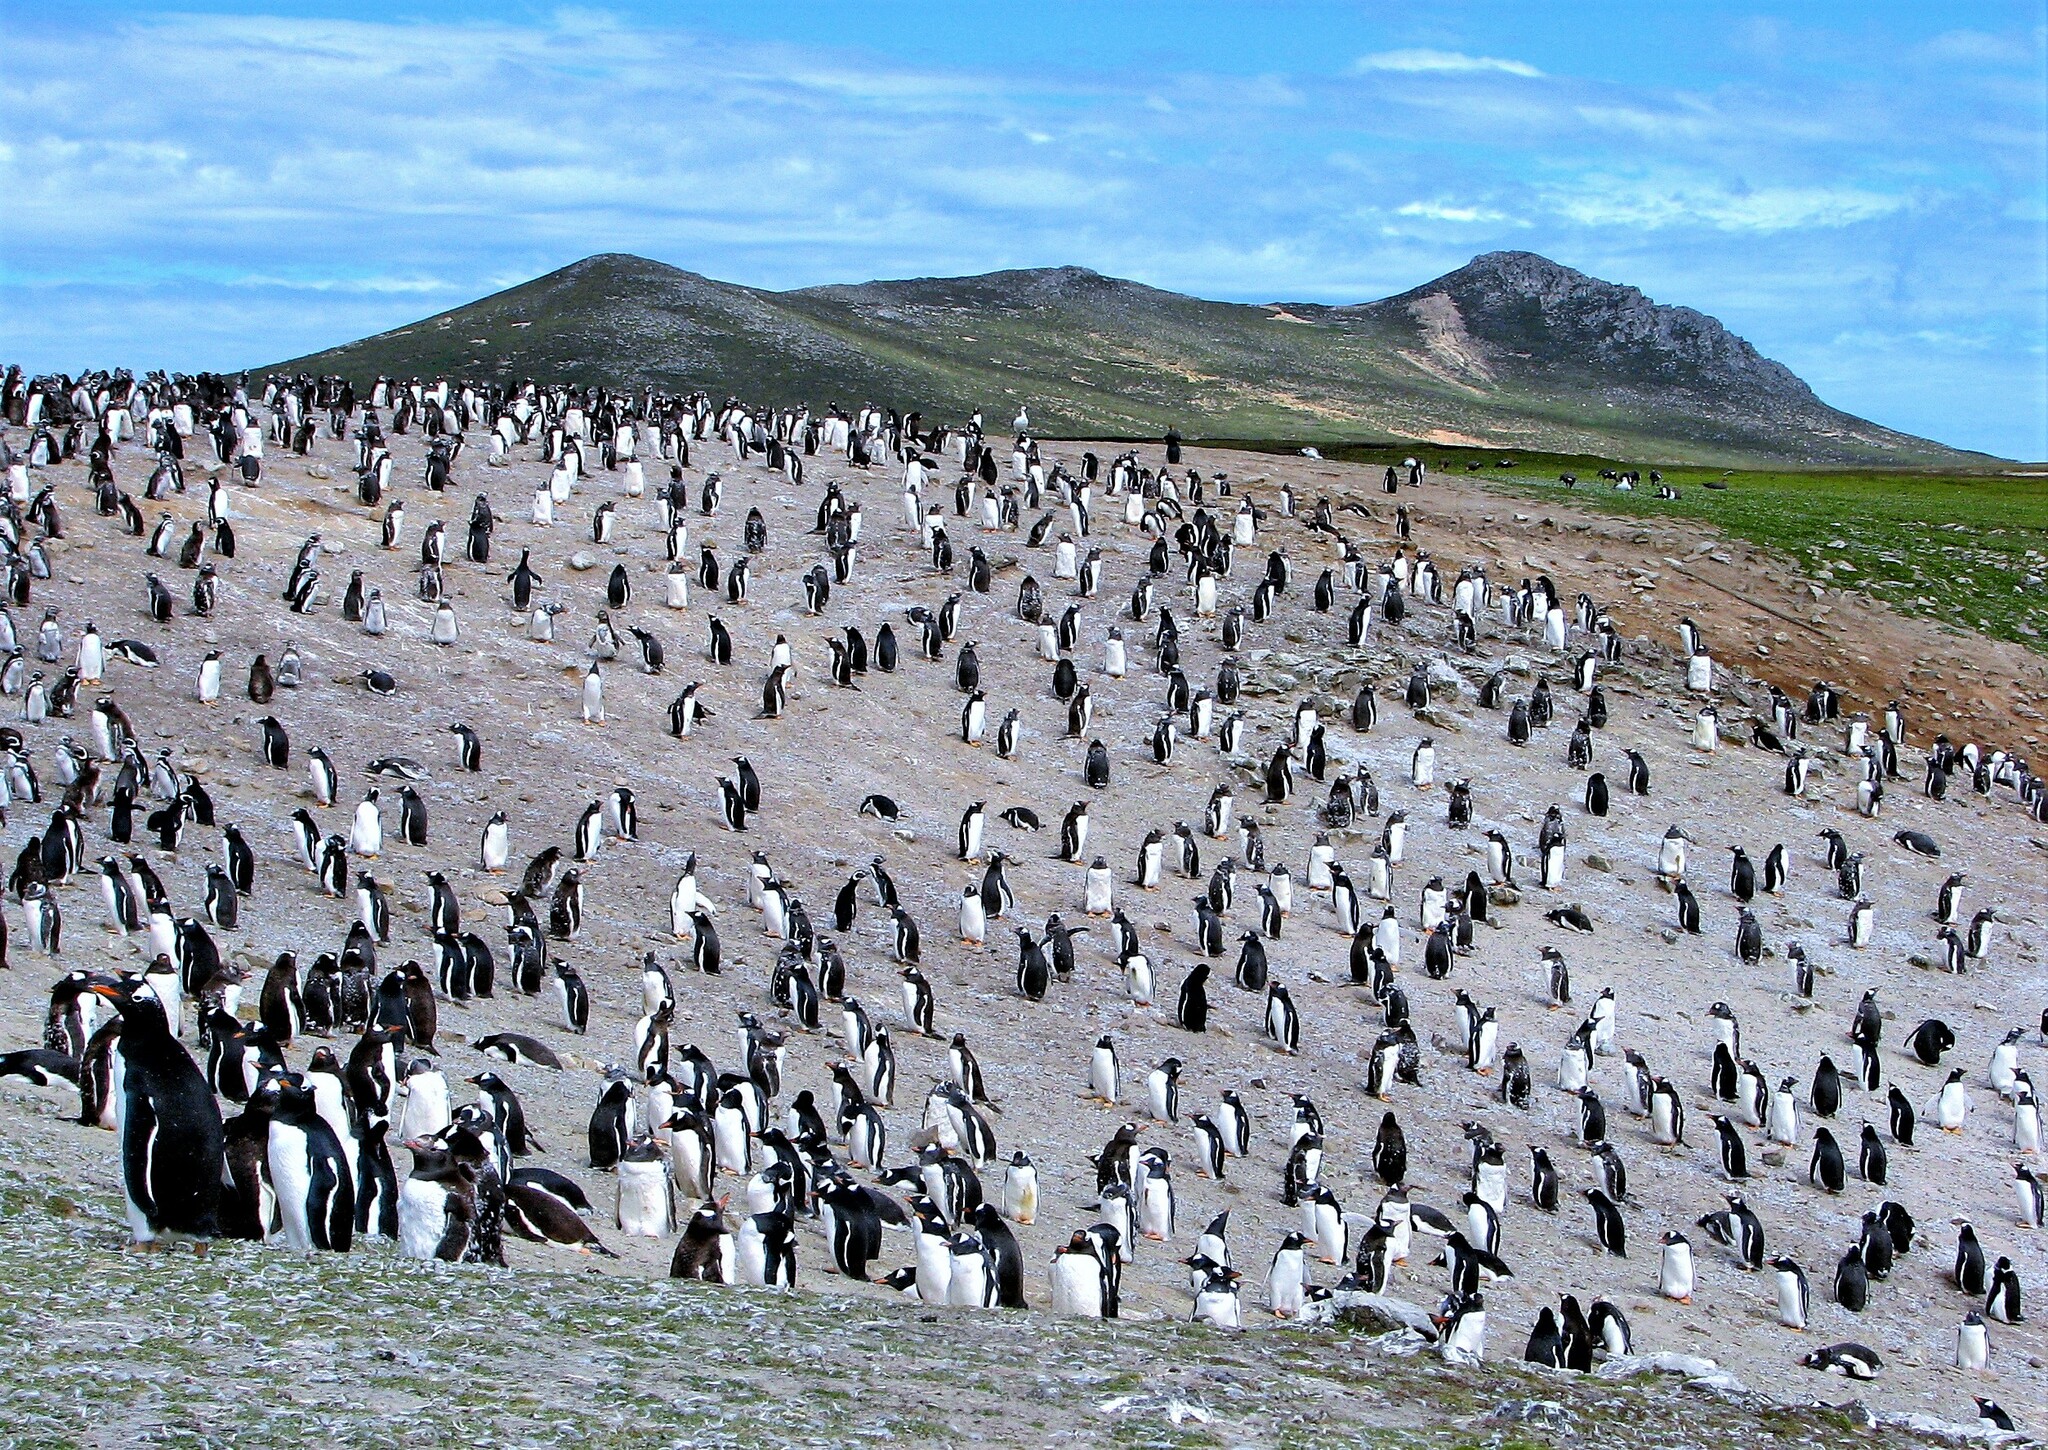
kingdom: Animalia
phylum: Chordata
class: Aves
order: Sphenisciformes
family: Spheniscidae
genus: Pygoscelis
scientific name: Pygoscelis papua
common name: Gentoo penguin
